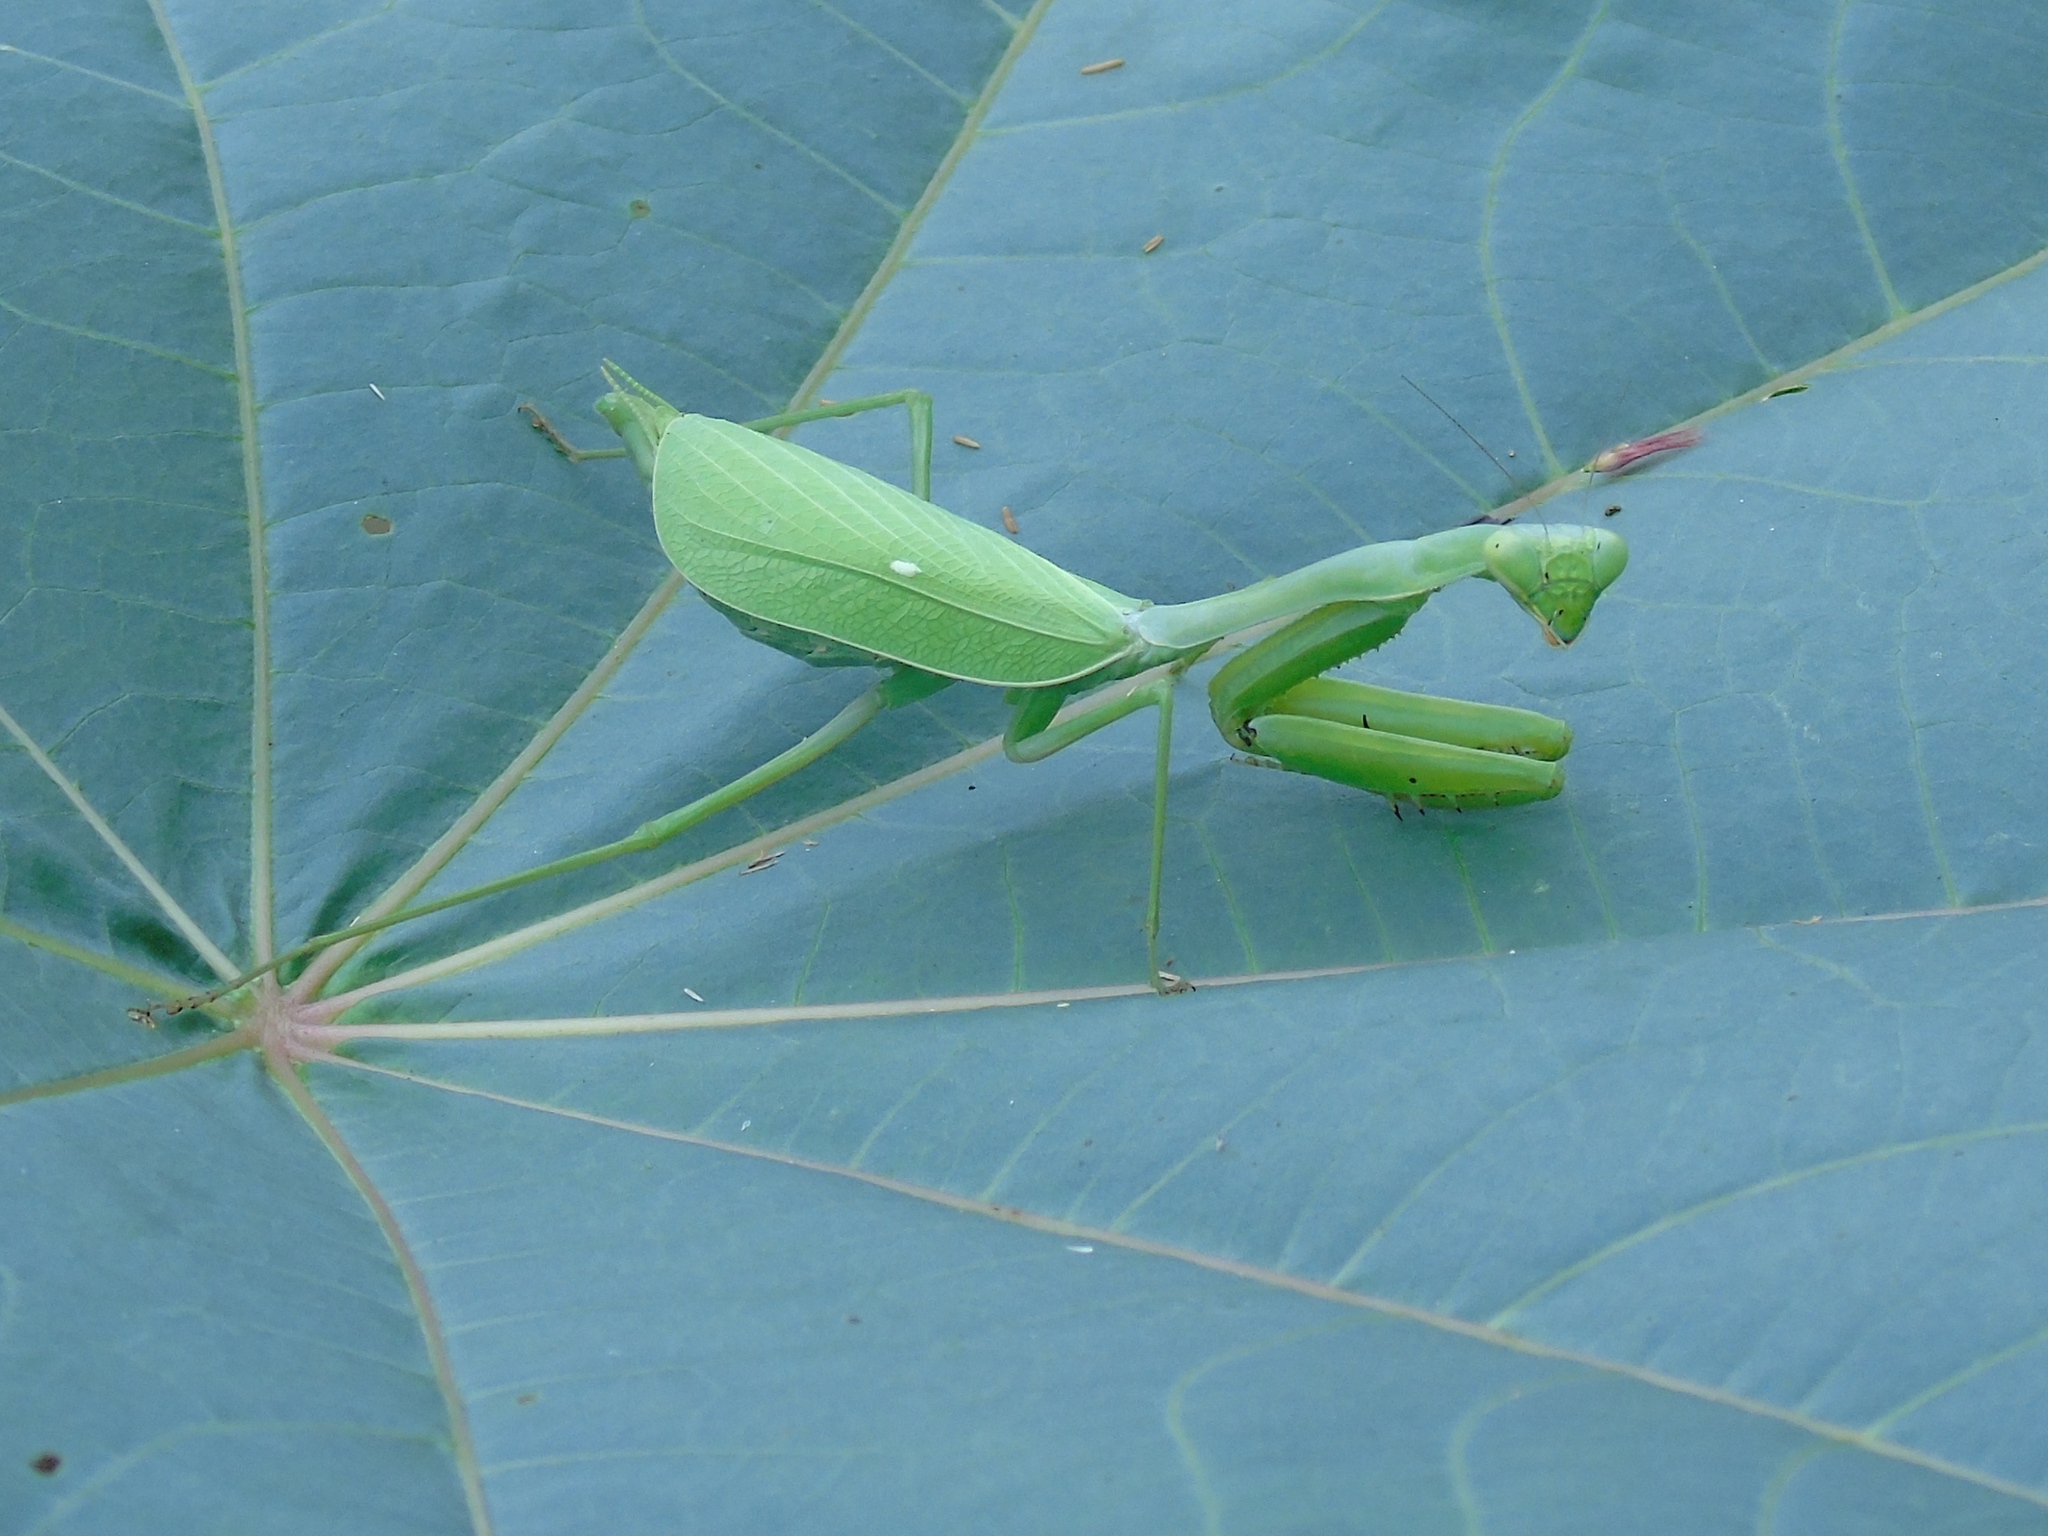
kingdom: Animalia
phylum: Arthropoda
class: Insecta
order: Mantodea
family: Mantidae
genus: Stagmomantis
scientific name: Stagmomantis limbata
